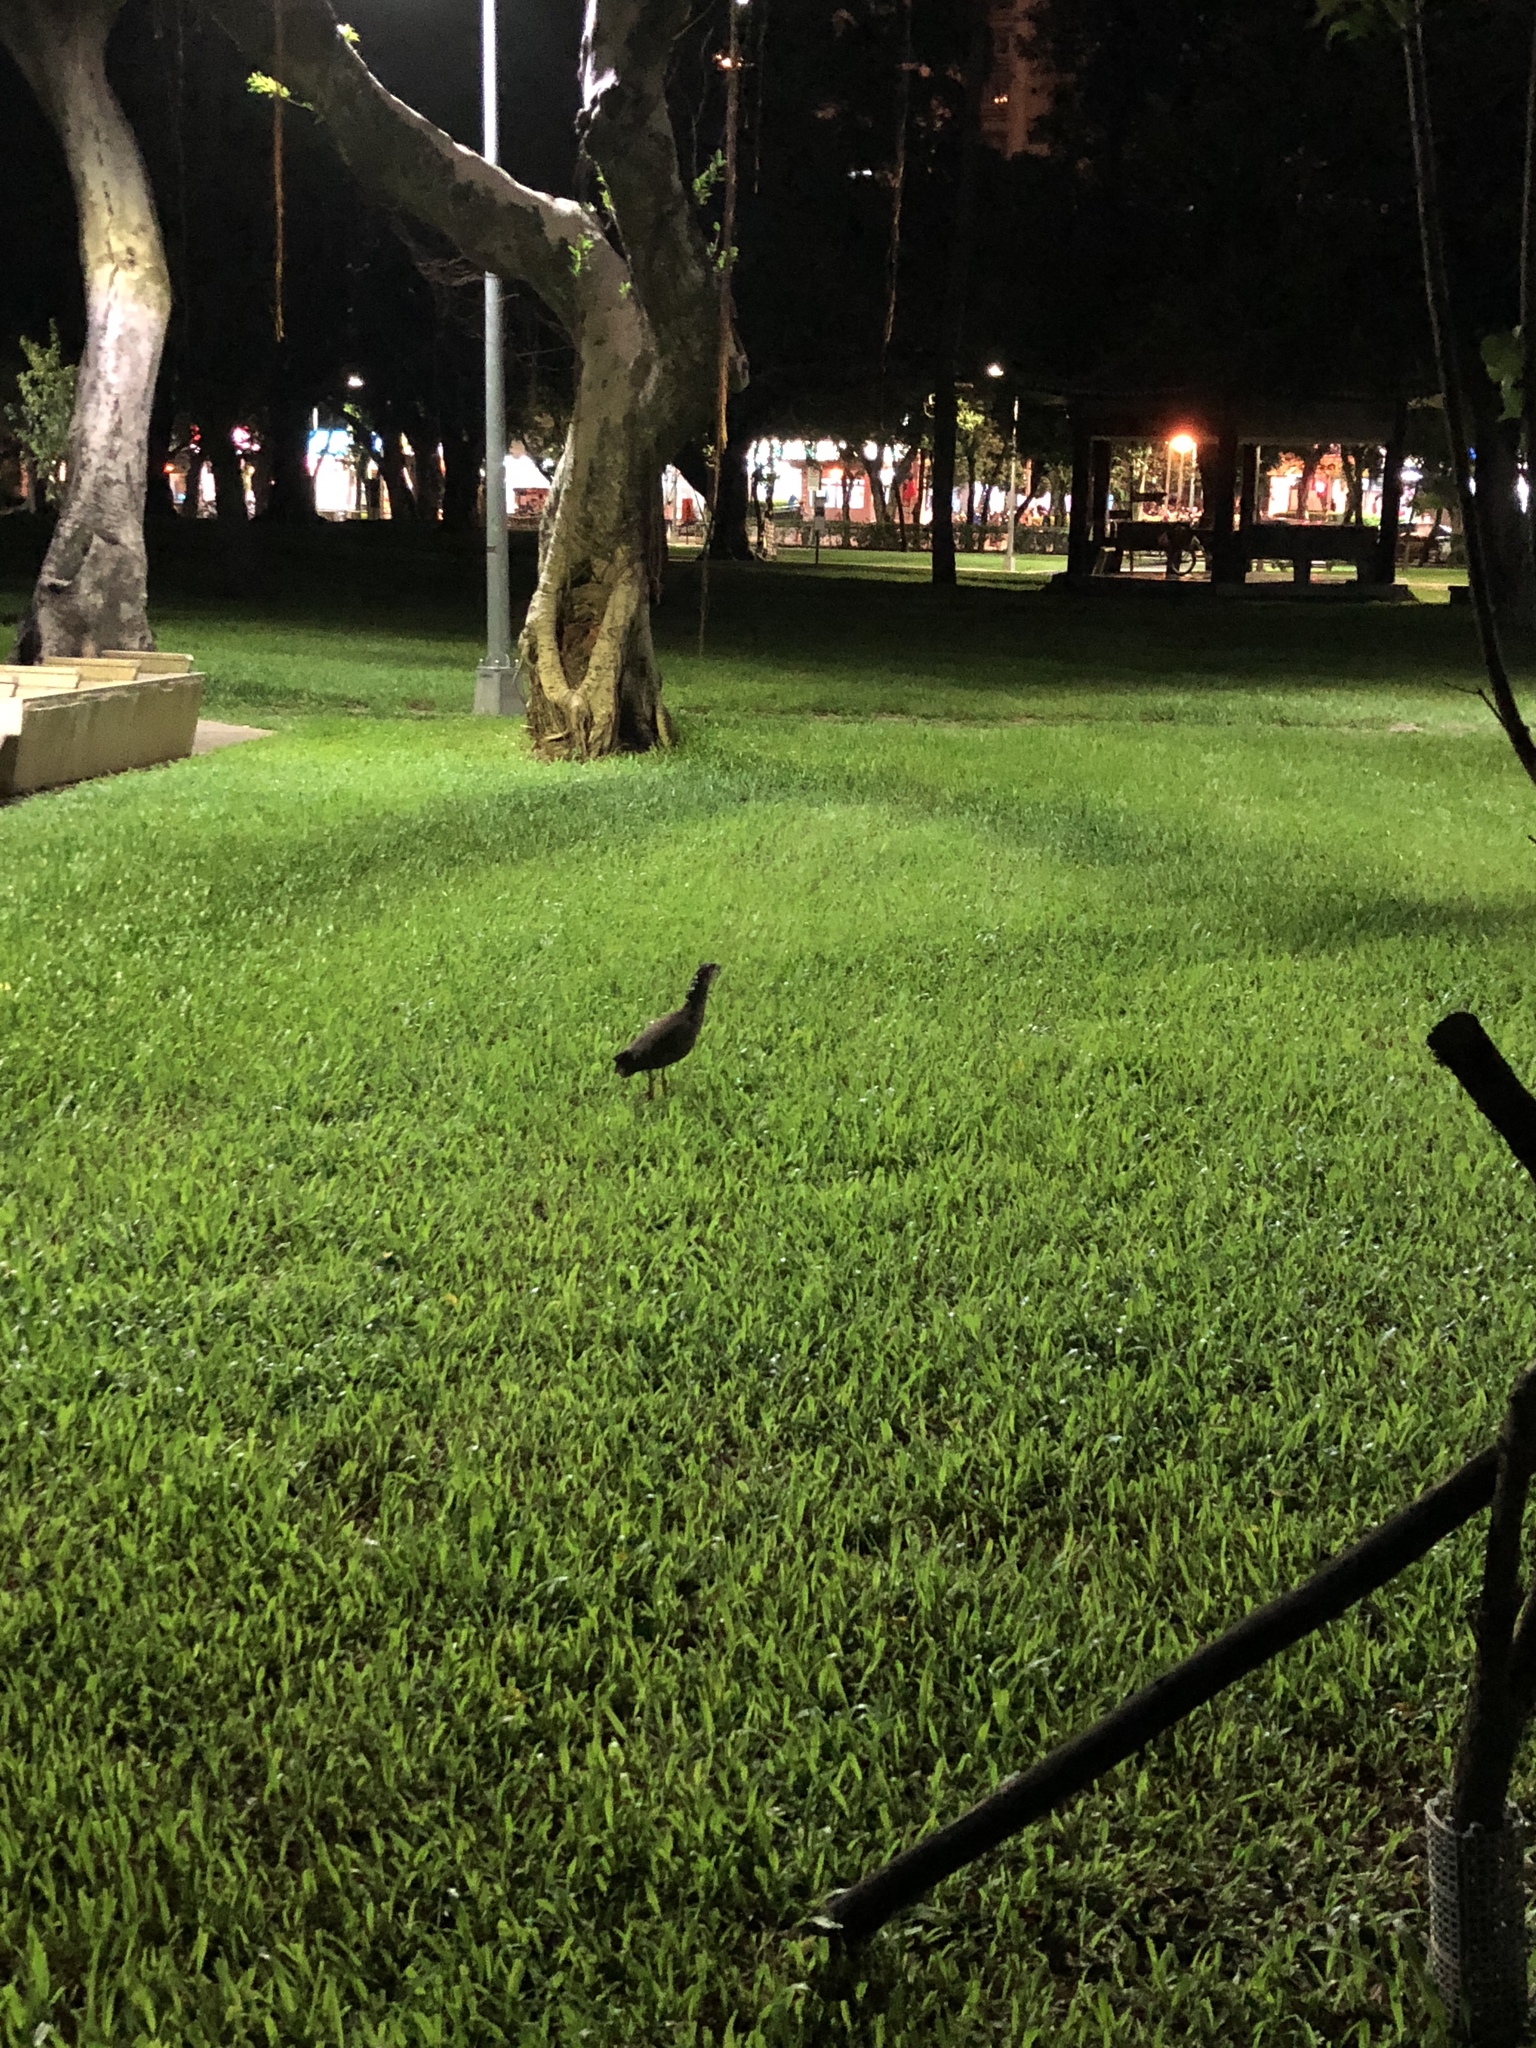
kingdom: Animalia
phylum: Chordata
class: Aves
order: Pelecaniformes
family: Ardeidae
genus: Gorsachius
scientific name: Gorsachius melanolophus
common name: Malayan night heron
